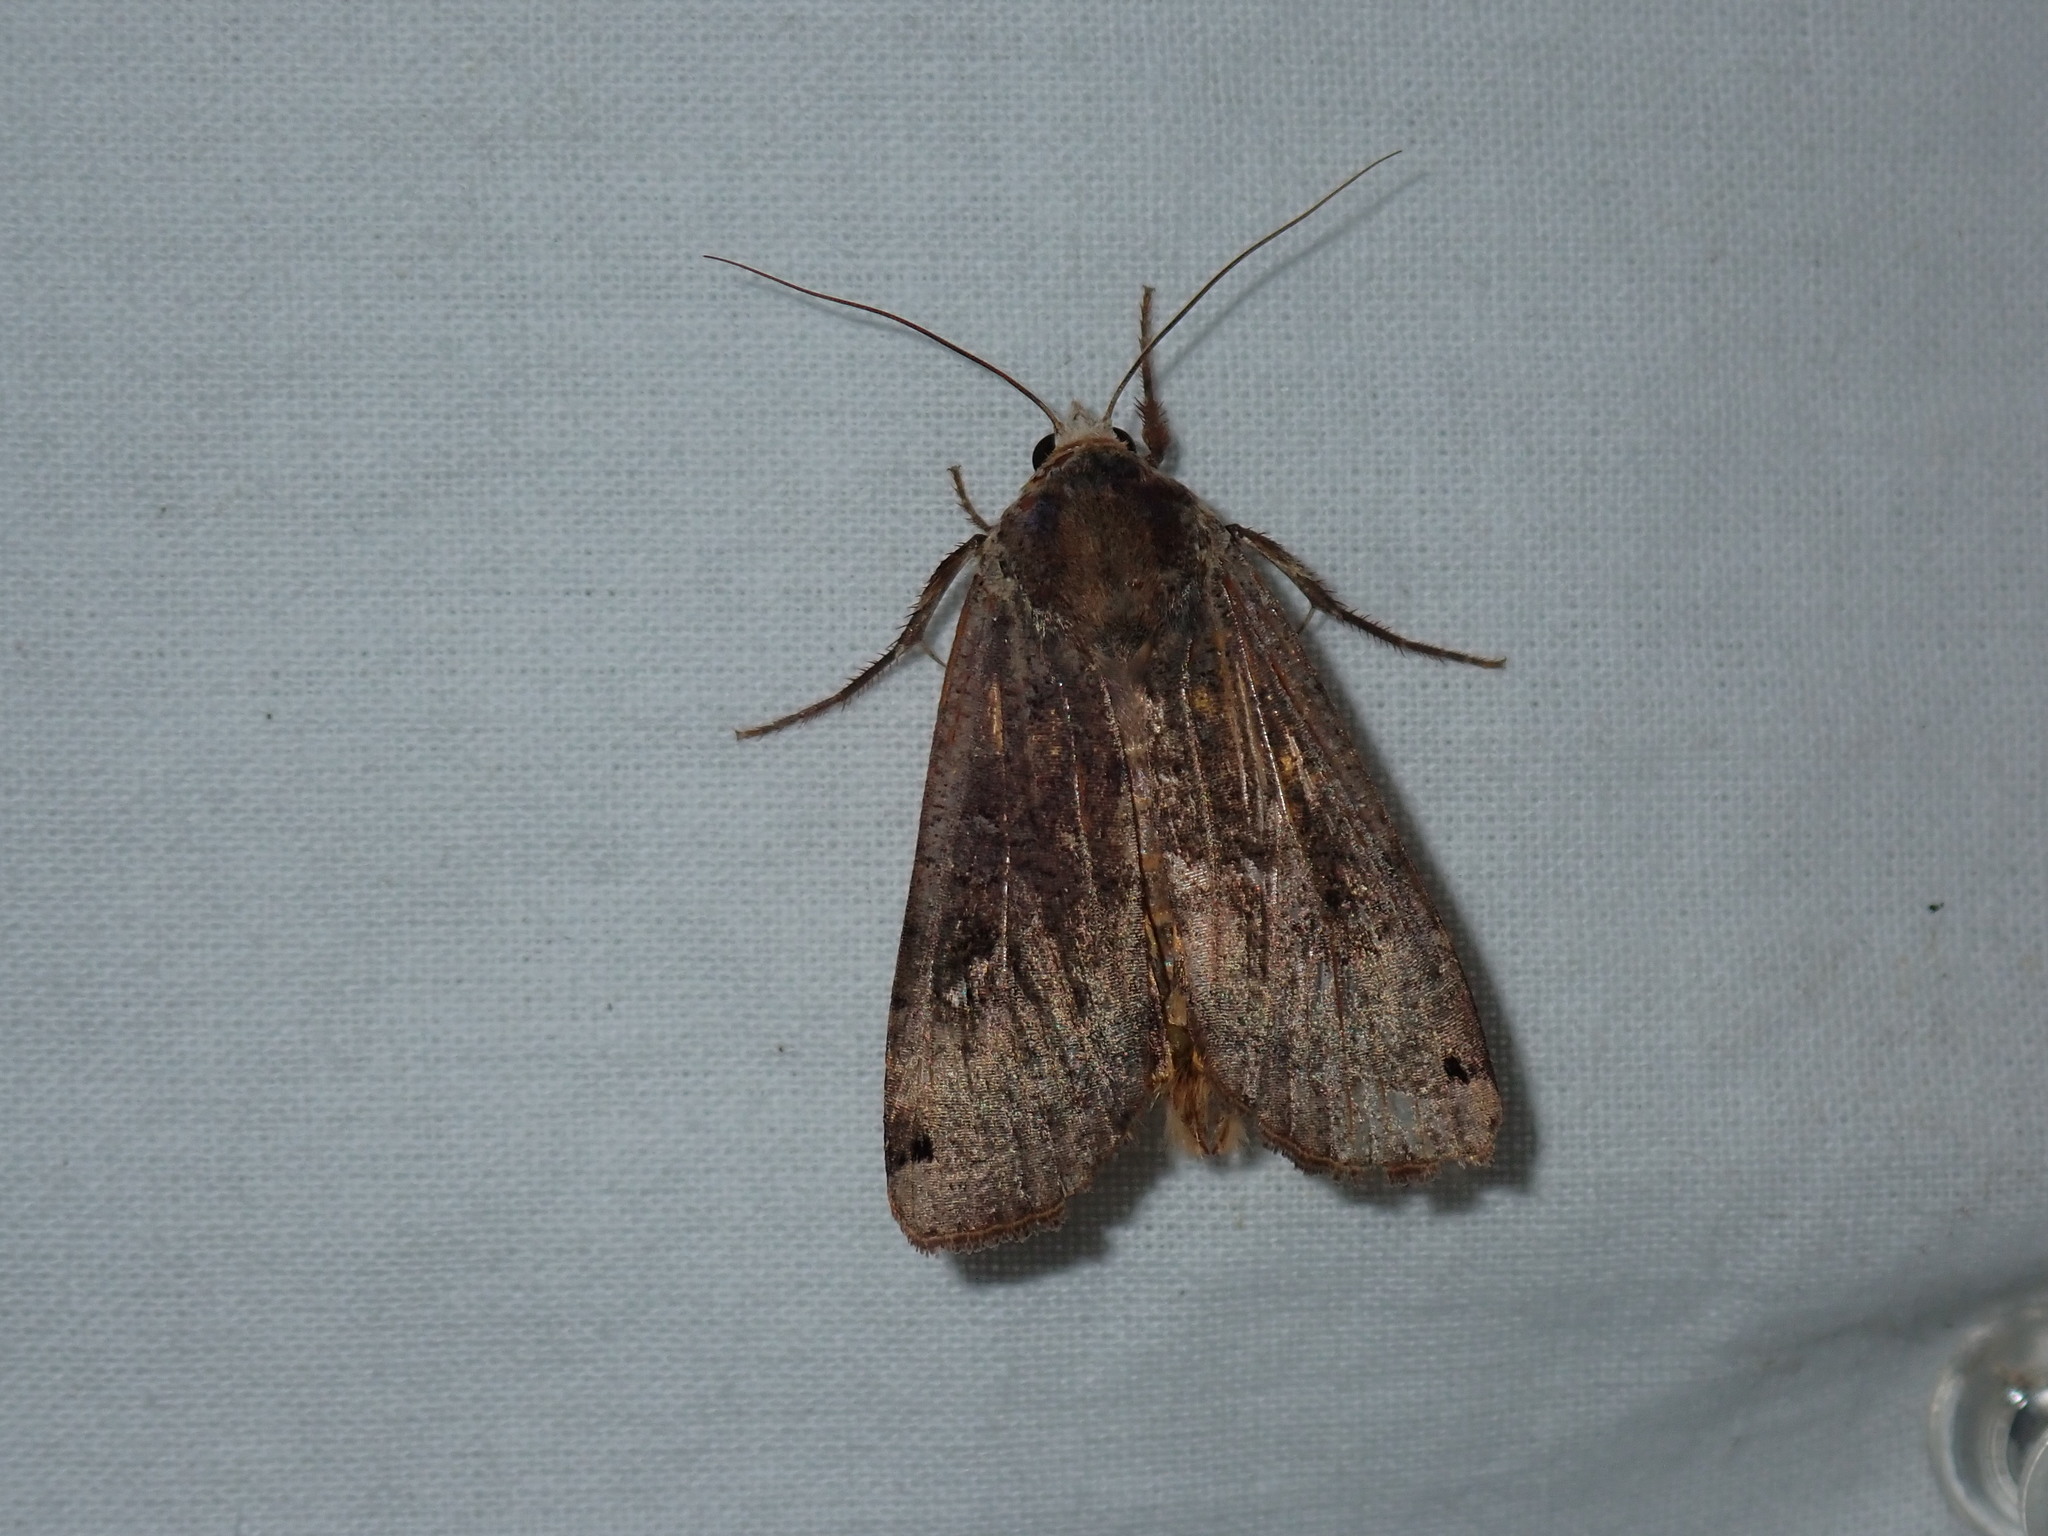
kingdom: Animalia
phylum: Arthropoda
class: Insecta
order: Lepidoptera
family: Noctuidae
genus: Noctua
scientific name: Noctua pronuba
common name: Large yellow underwing
